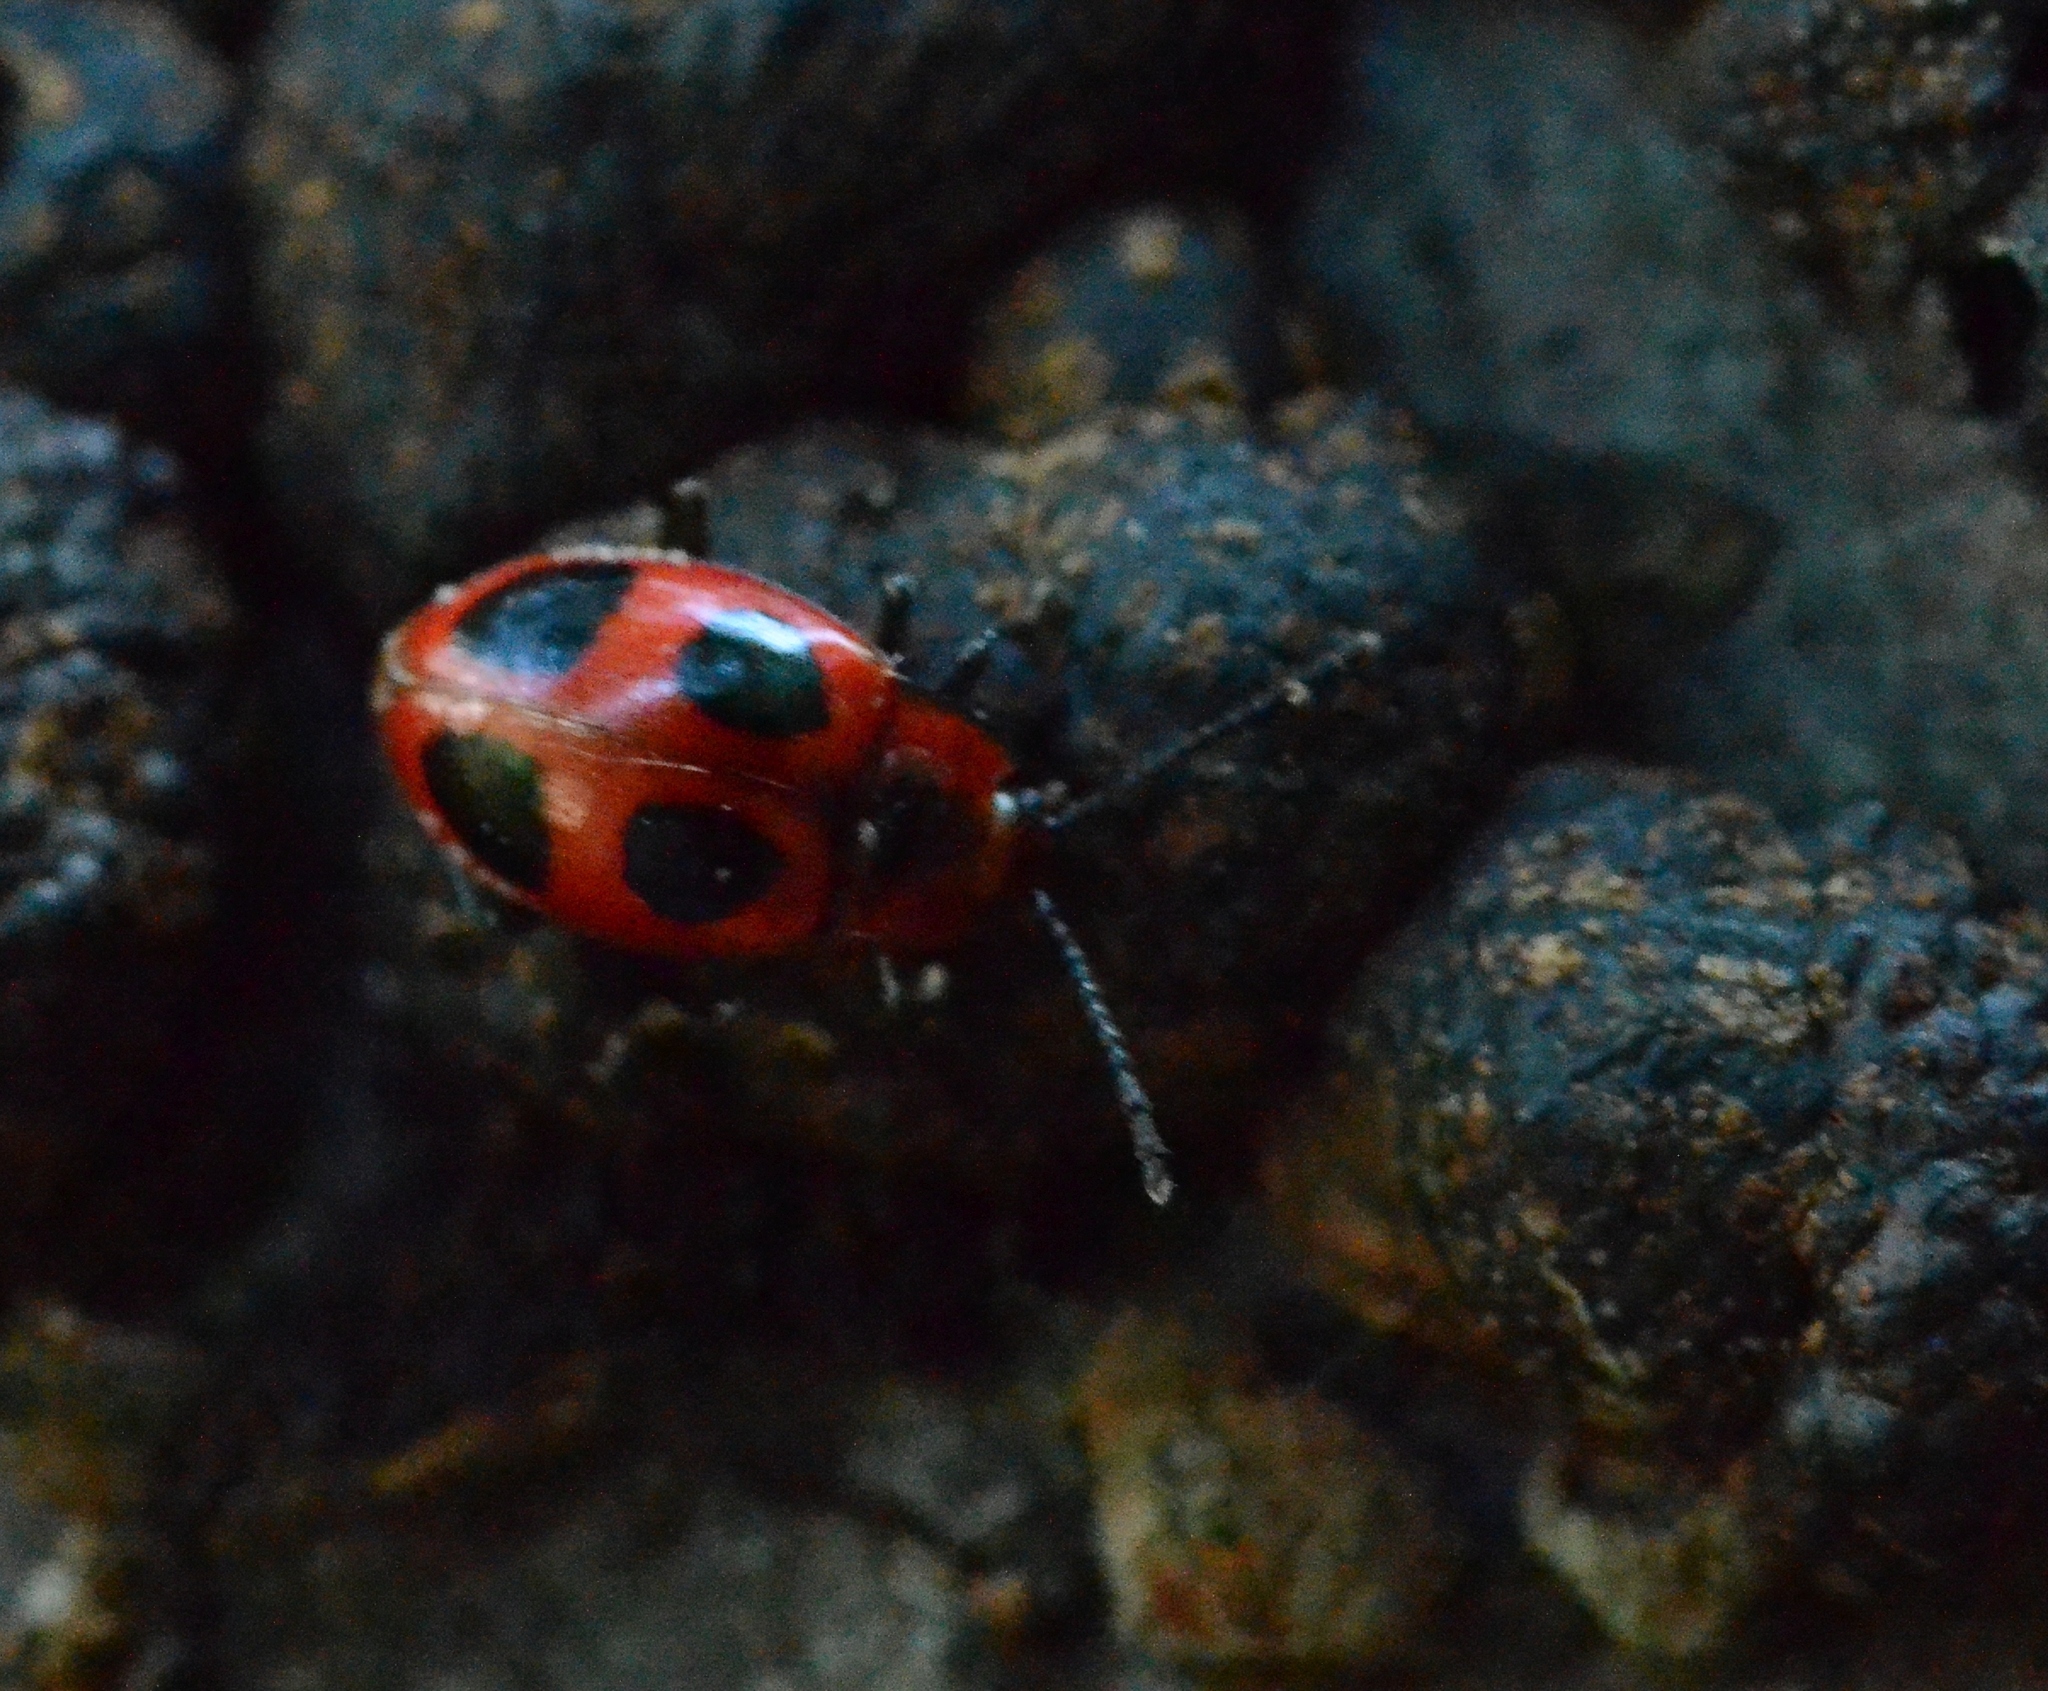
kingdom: Animalia
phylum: Arthropoda
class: Insecta
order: Coleoptera
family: Endomychidae
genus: Endomychus
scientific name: Endomychus coccineus
